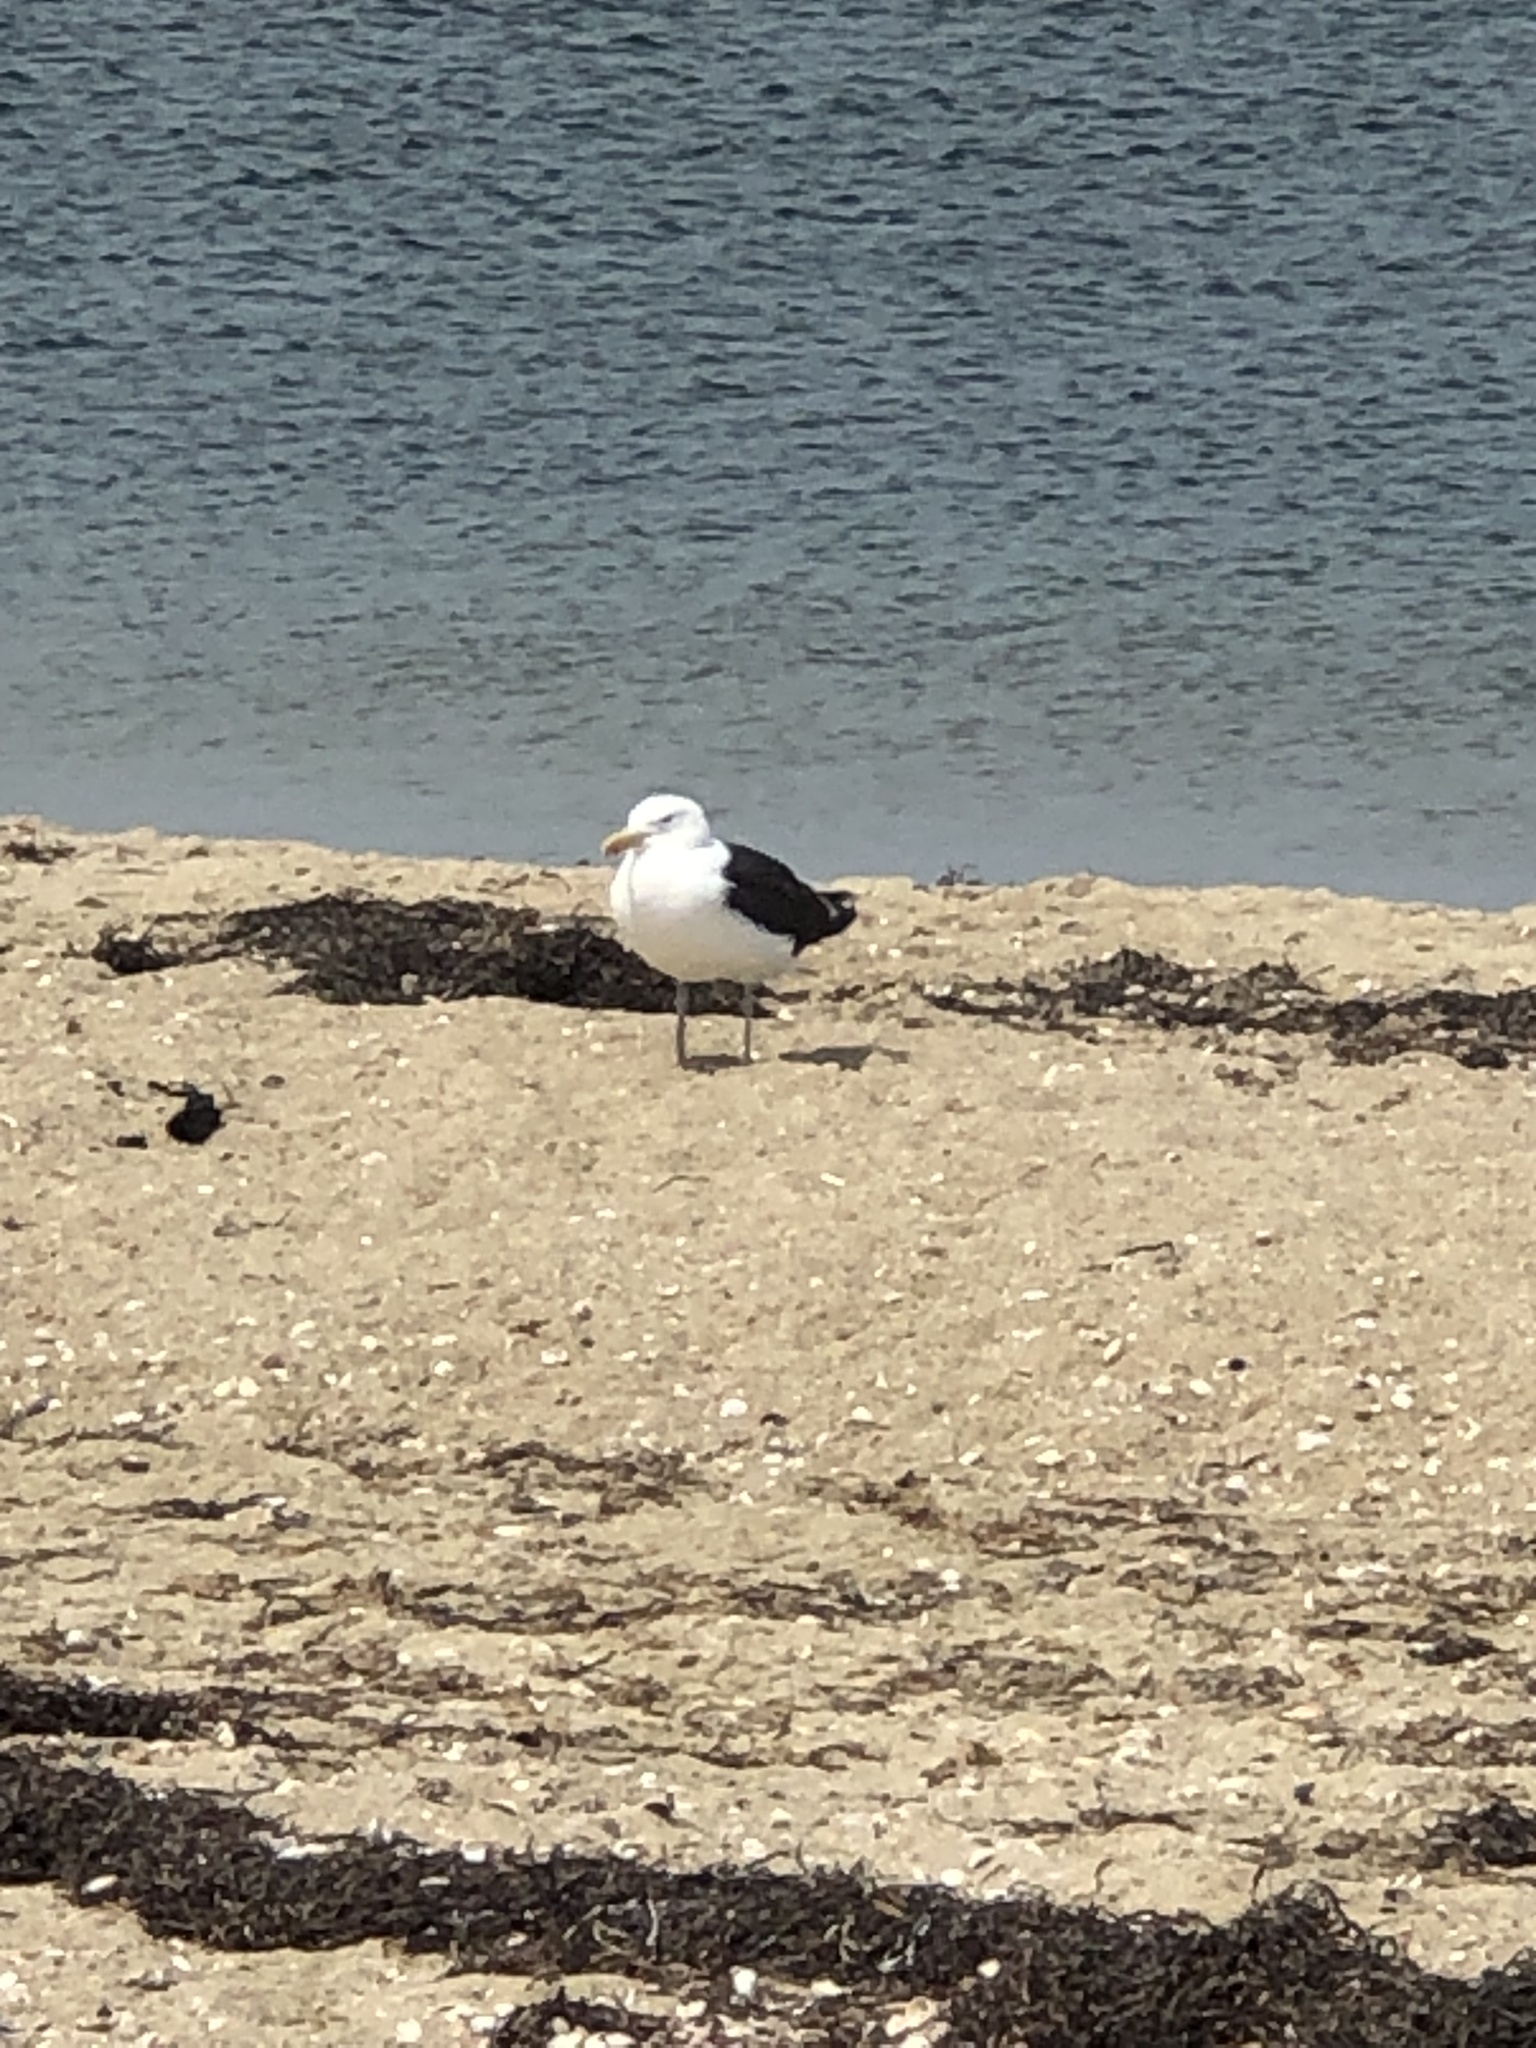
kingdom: Animalia
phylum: Chordata
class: Aves
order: Charadriiformes
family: Laridae
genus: Larus
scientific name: Larus marinus
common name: Great black-backed gull
